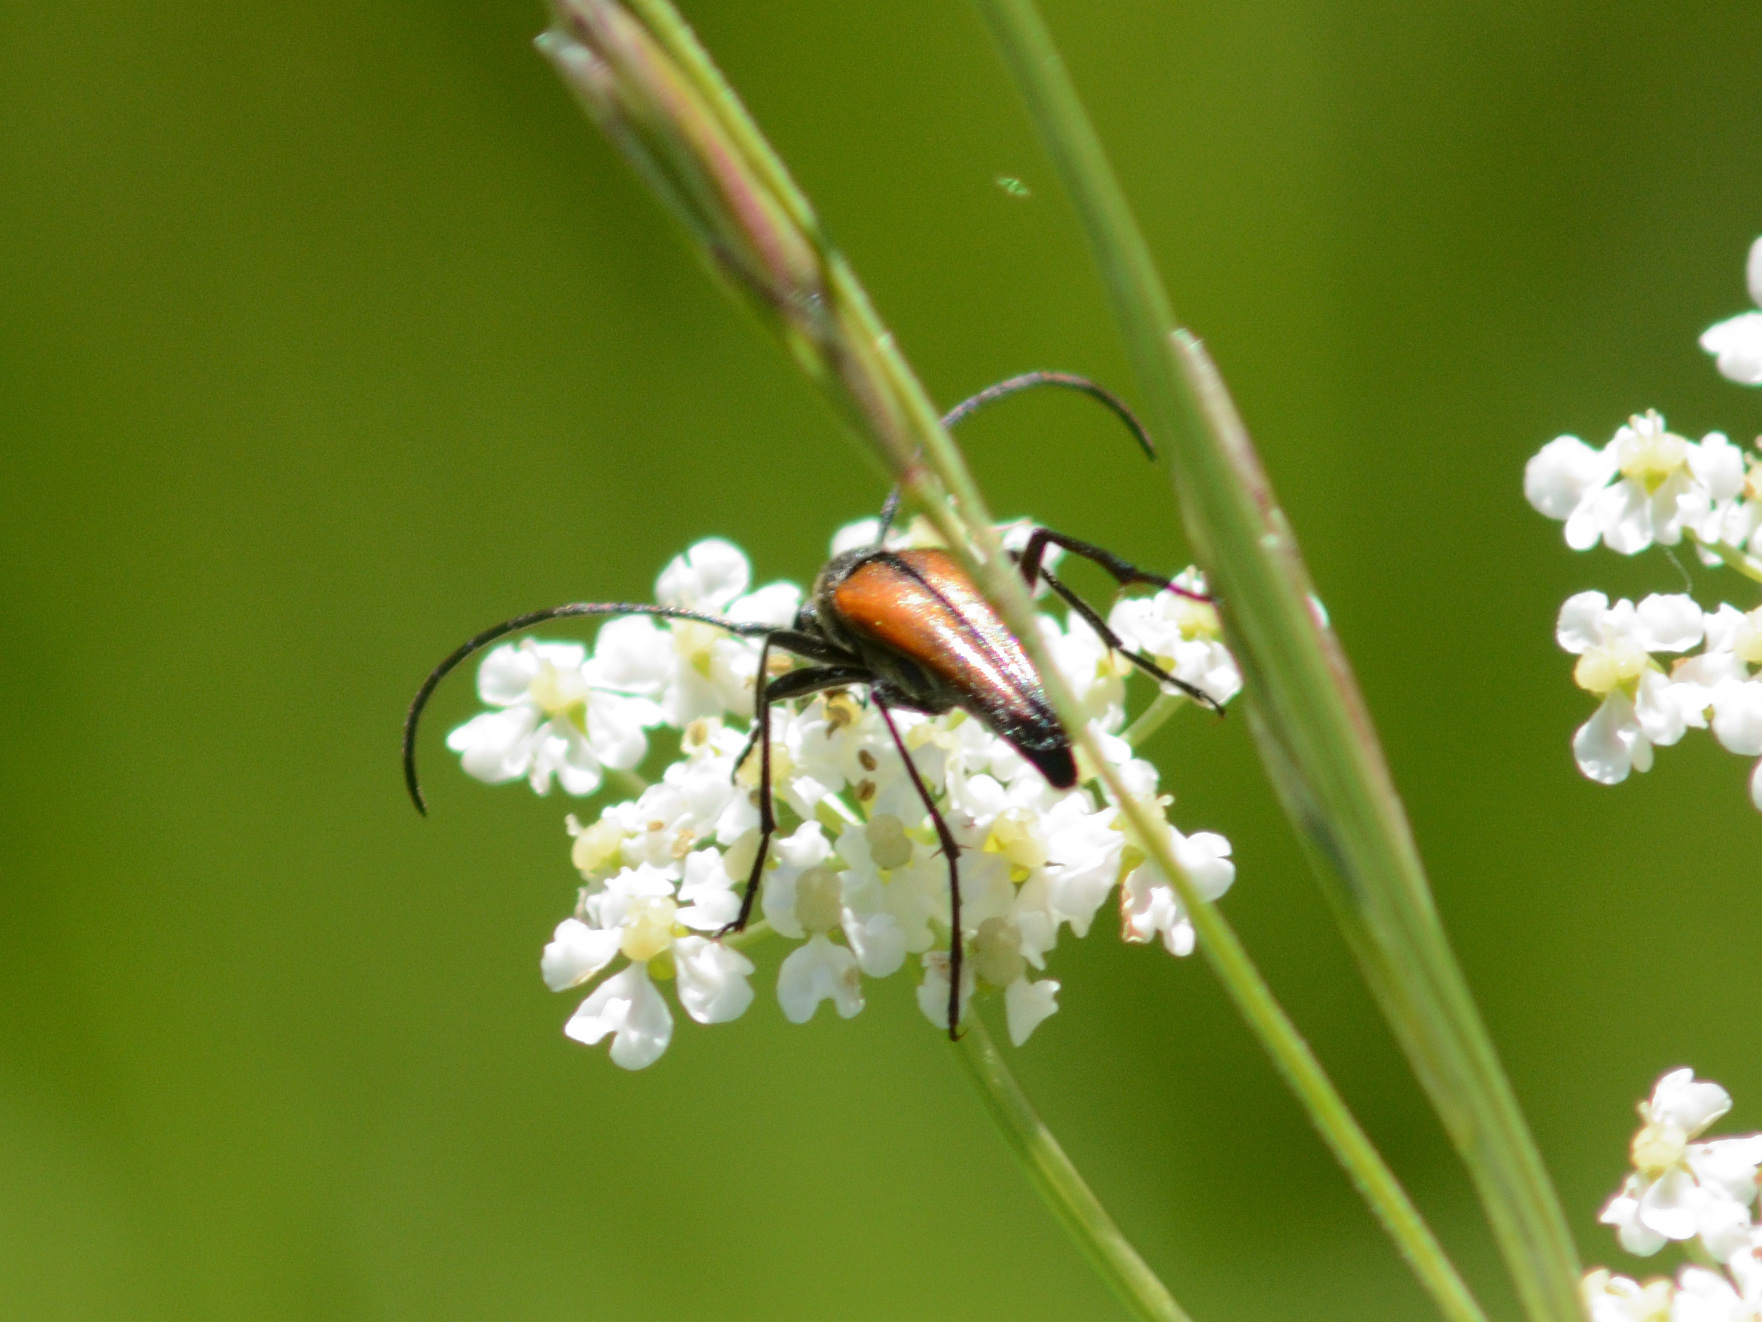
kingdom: Animalia
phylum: Arthropoda
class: Insecta
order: Coleoptera
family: Cerambycidae
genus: Stenurella
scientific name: Stenurella melanura
